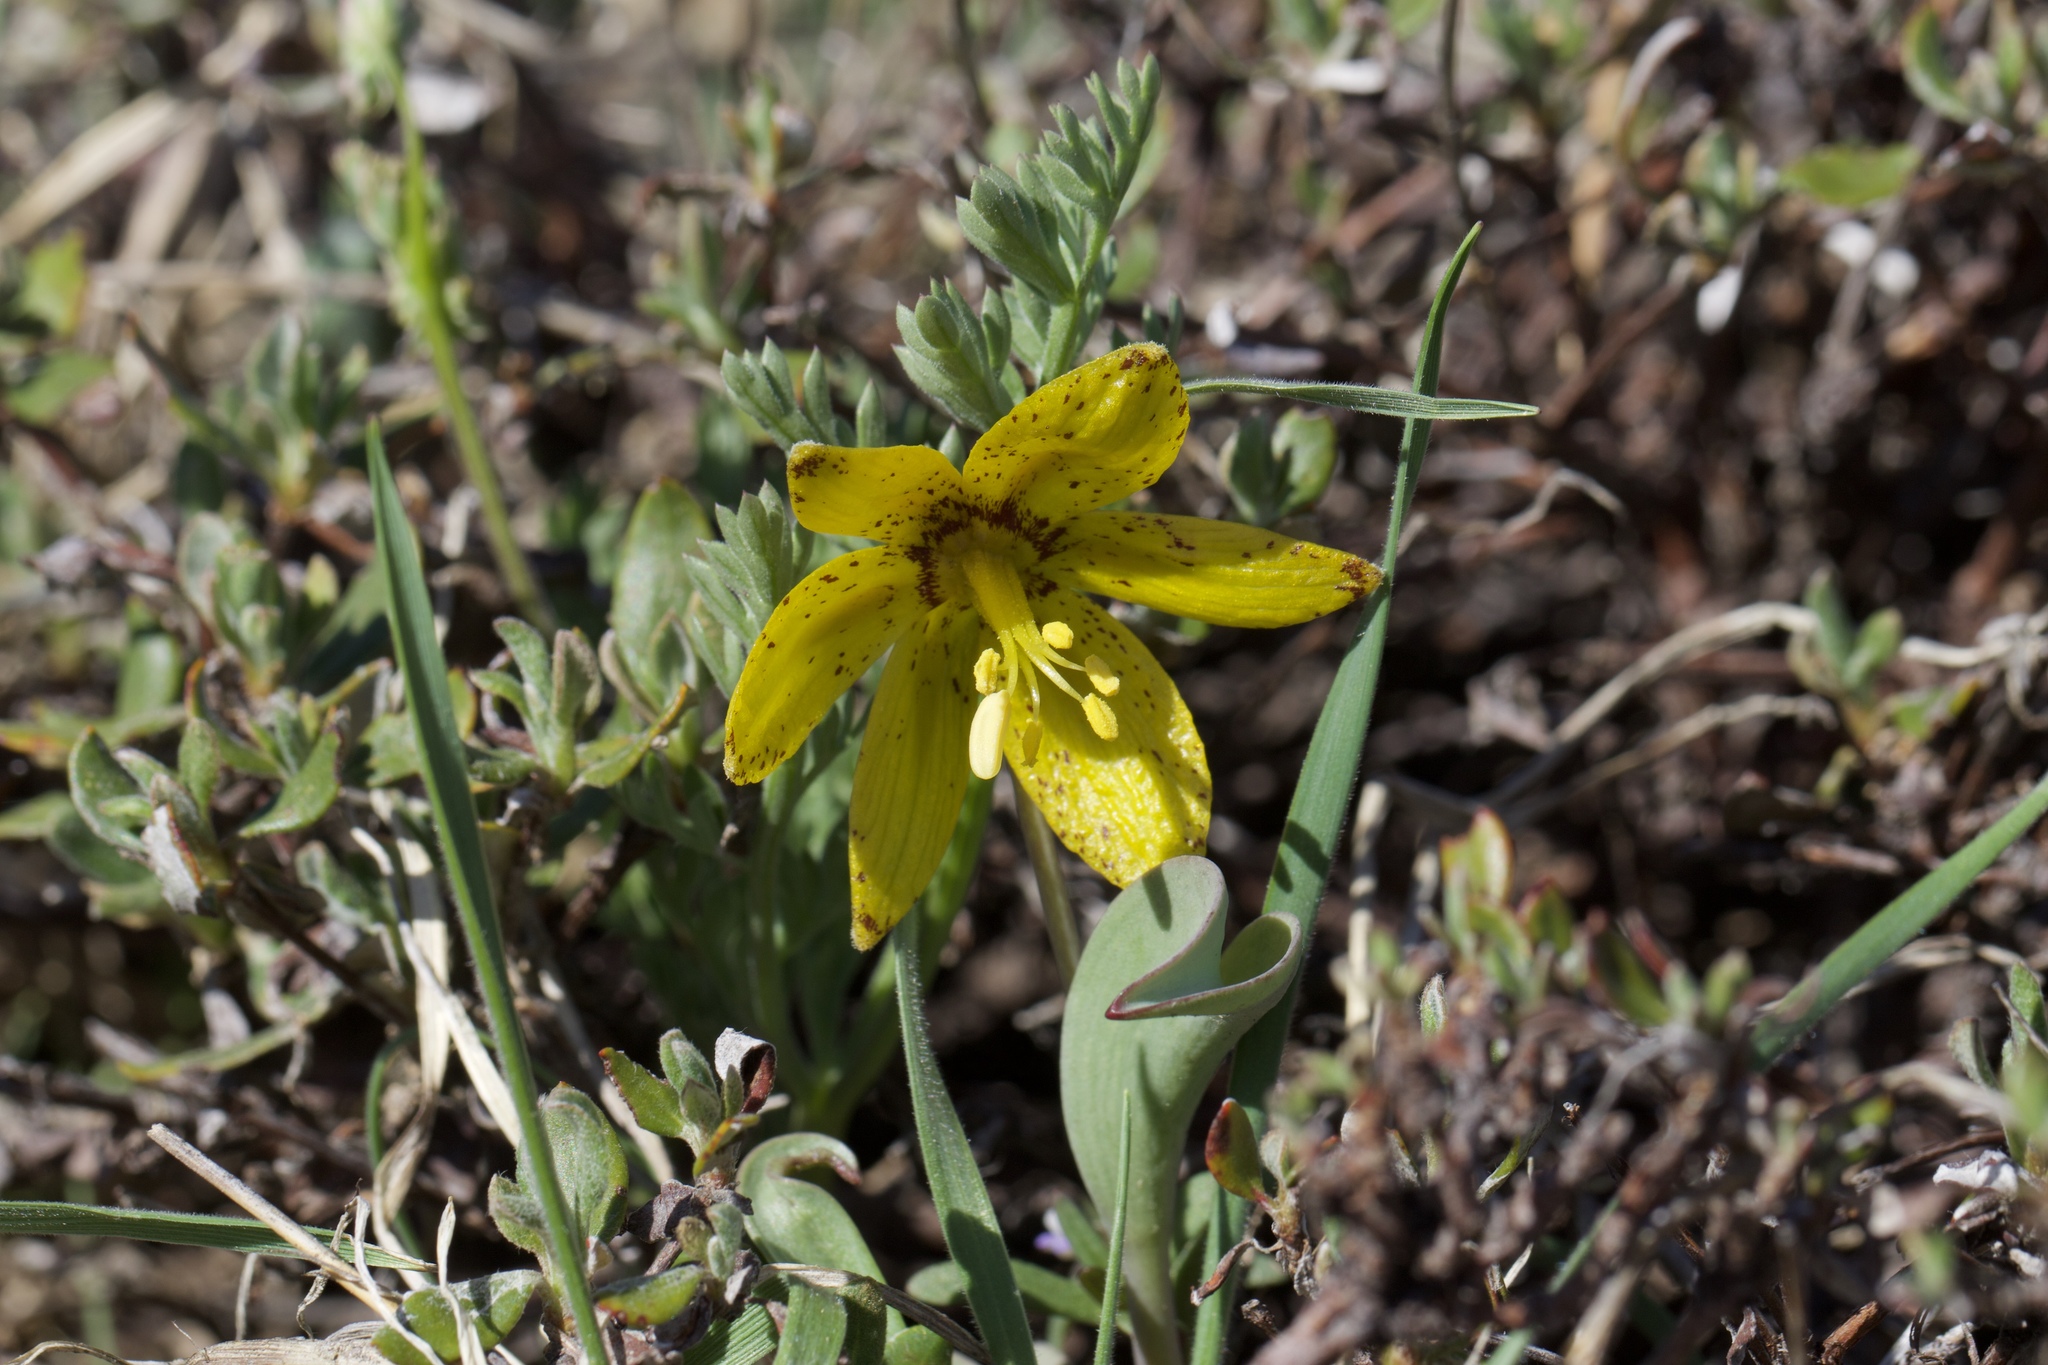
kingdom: Plantae
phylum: Tracheophyta
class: Liliopsida
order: Liliales
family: Liliaceae
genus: Fritillaria
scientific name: Fritillaria glauca
